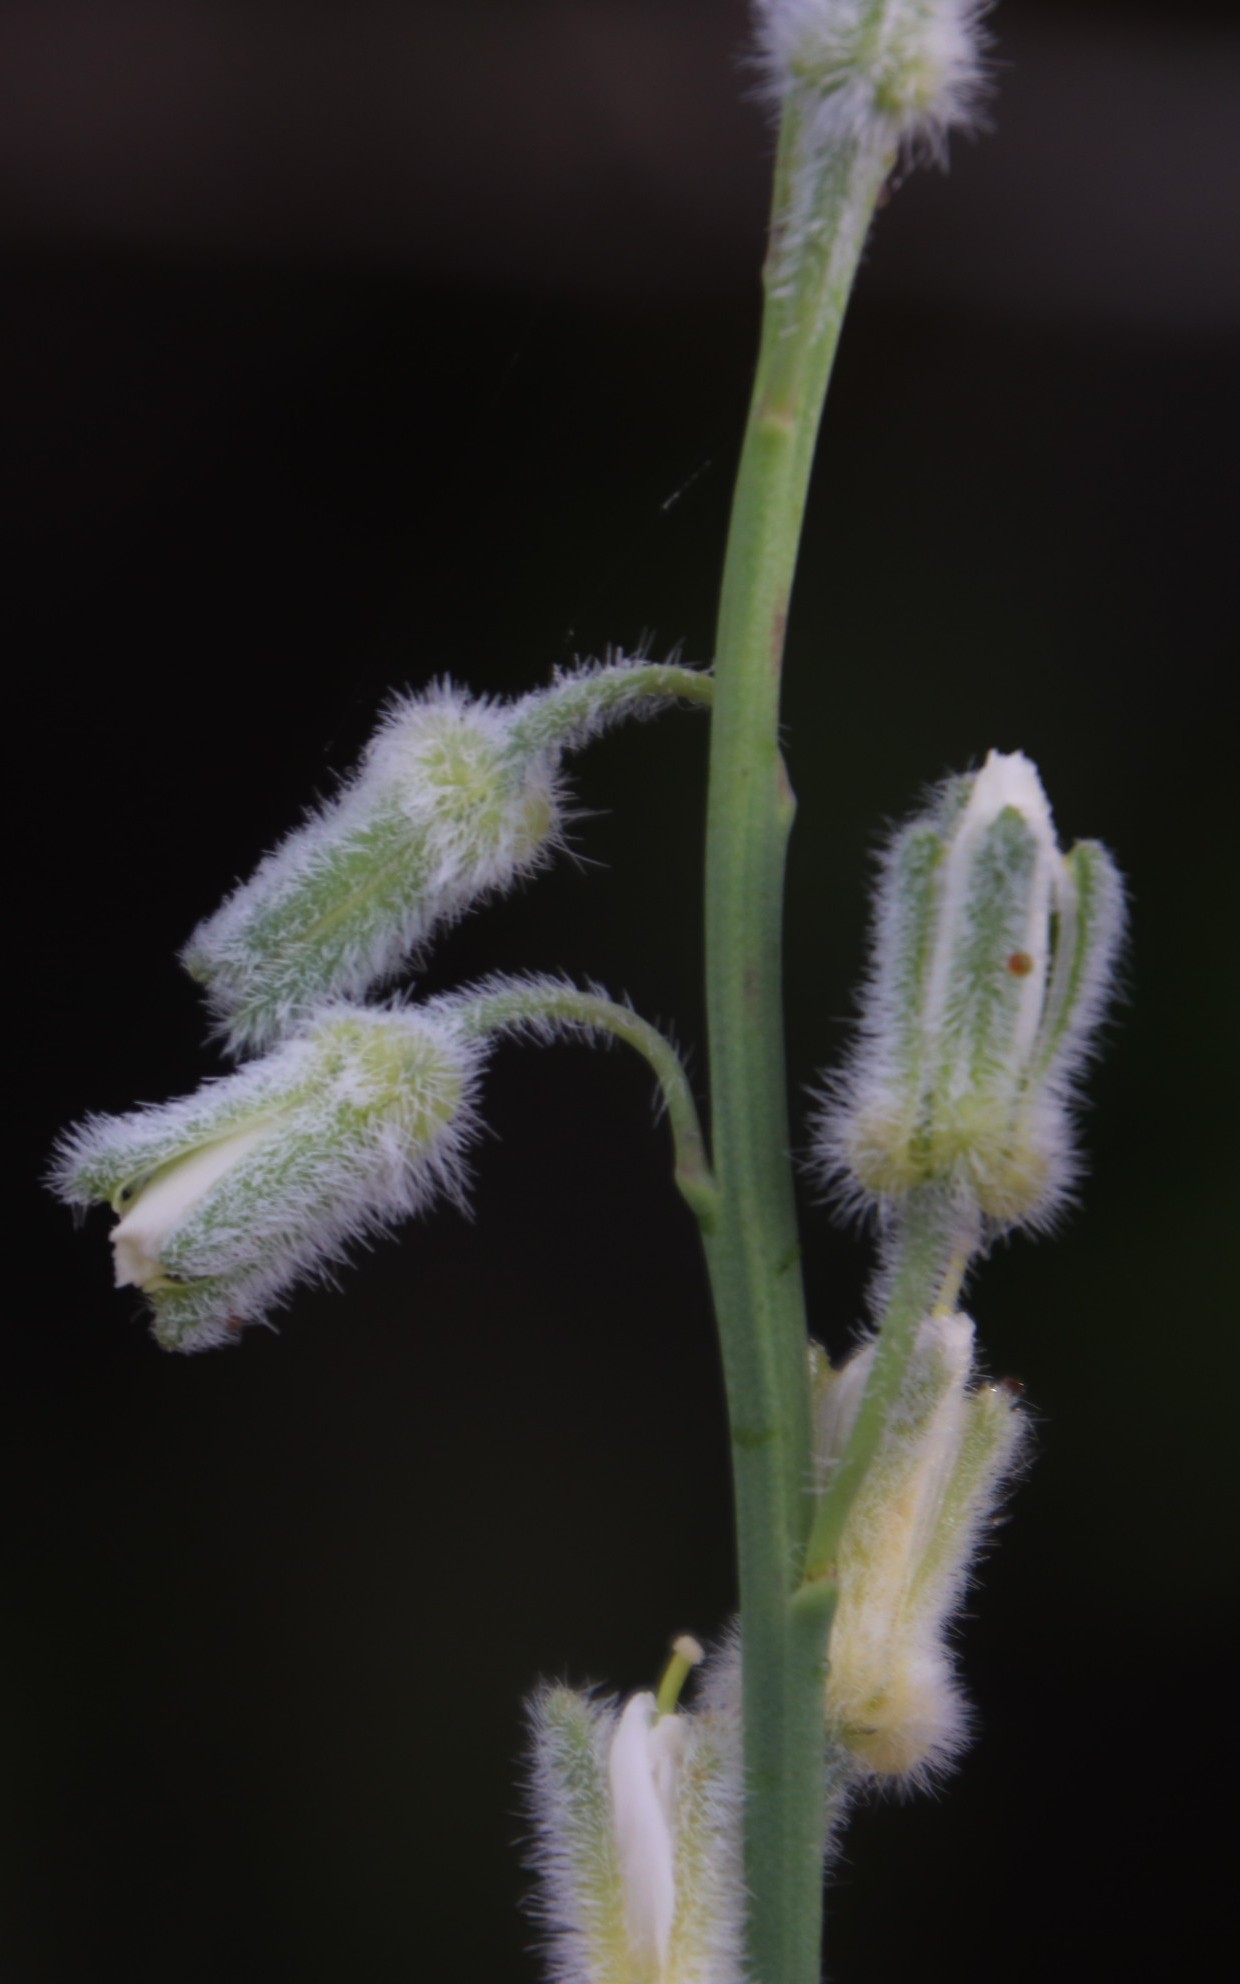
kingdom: Plantae
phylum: Tracheophyta
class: Magnoliopsida
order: Brassicales
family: Brassicaceae
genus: Heliophila
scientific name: Heliophila linearis
